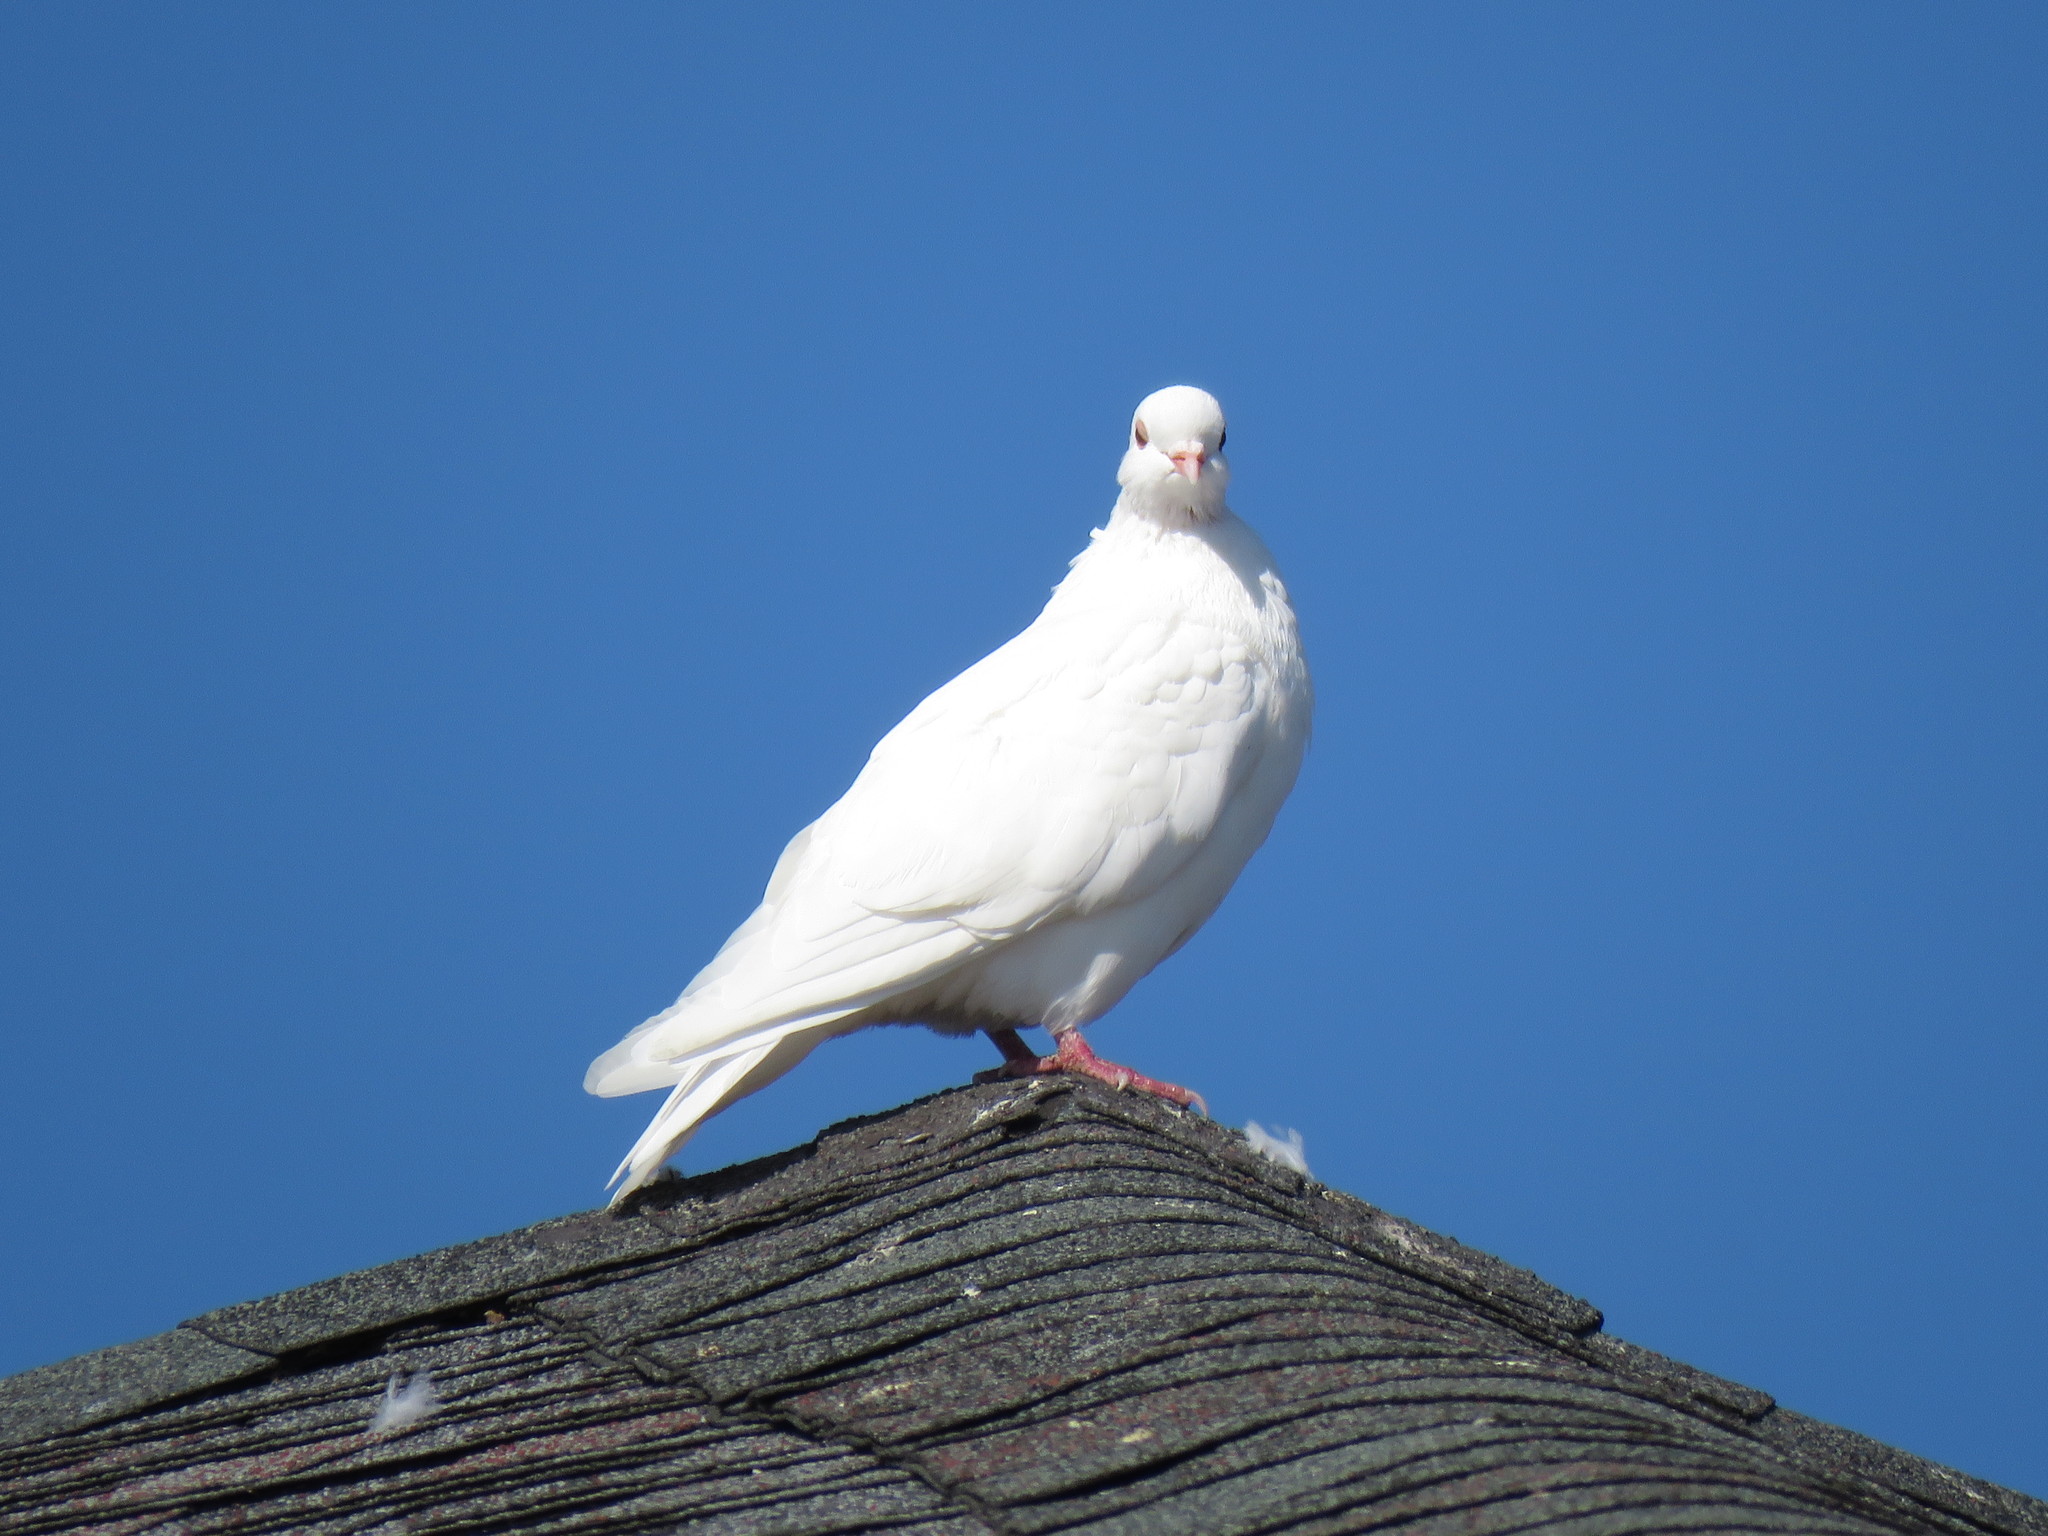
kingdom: Animalia
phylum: Chordata
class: Aves
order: Columbiformes
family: Columbidae
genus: Columba
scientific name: Columba livia
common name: Rock pigeon
